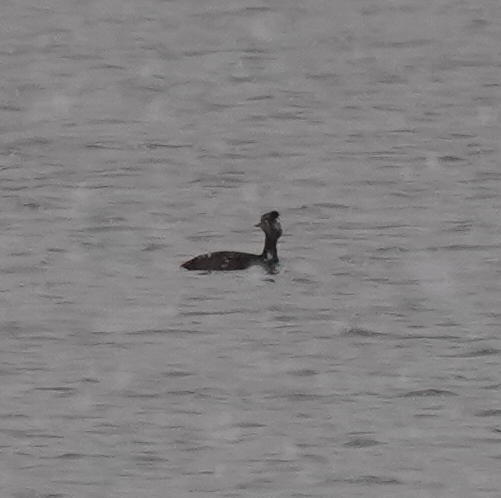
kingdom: Animalia
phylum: Chordata
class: Aves
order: Podicipediformes
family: Podicipedidae
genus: Podiceps
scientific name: Podiceps nigricollis
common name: Black-necked grebe
